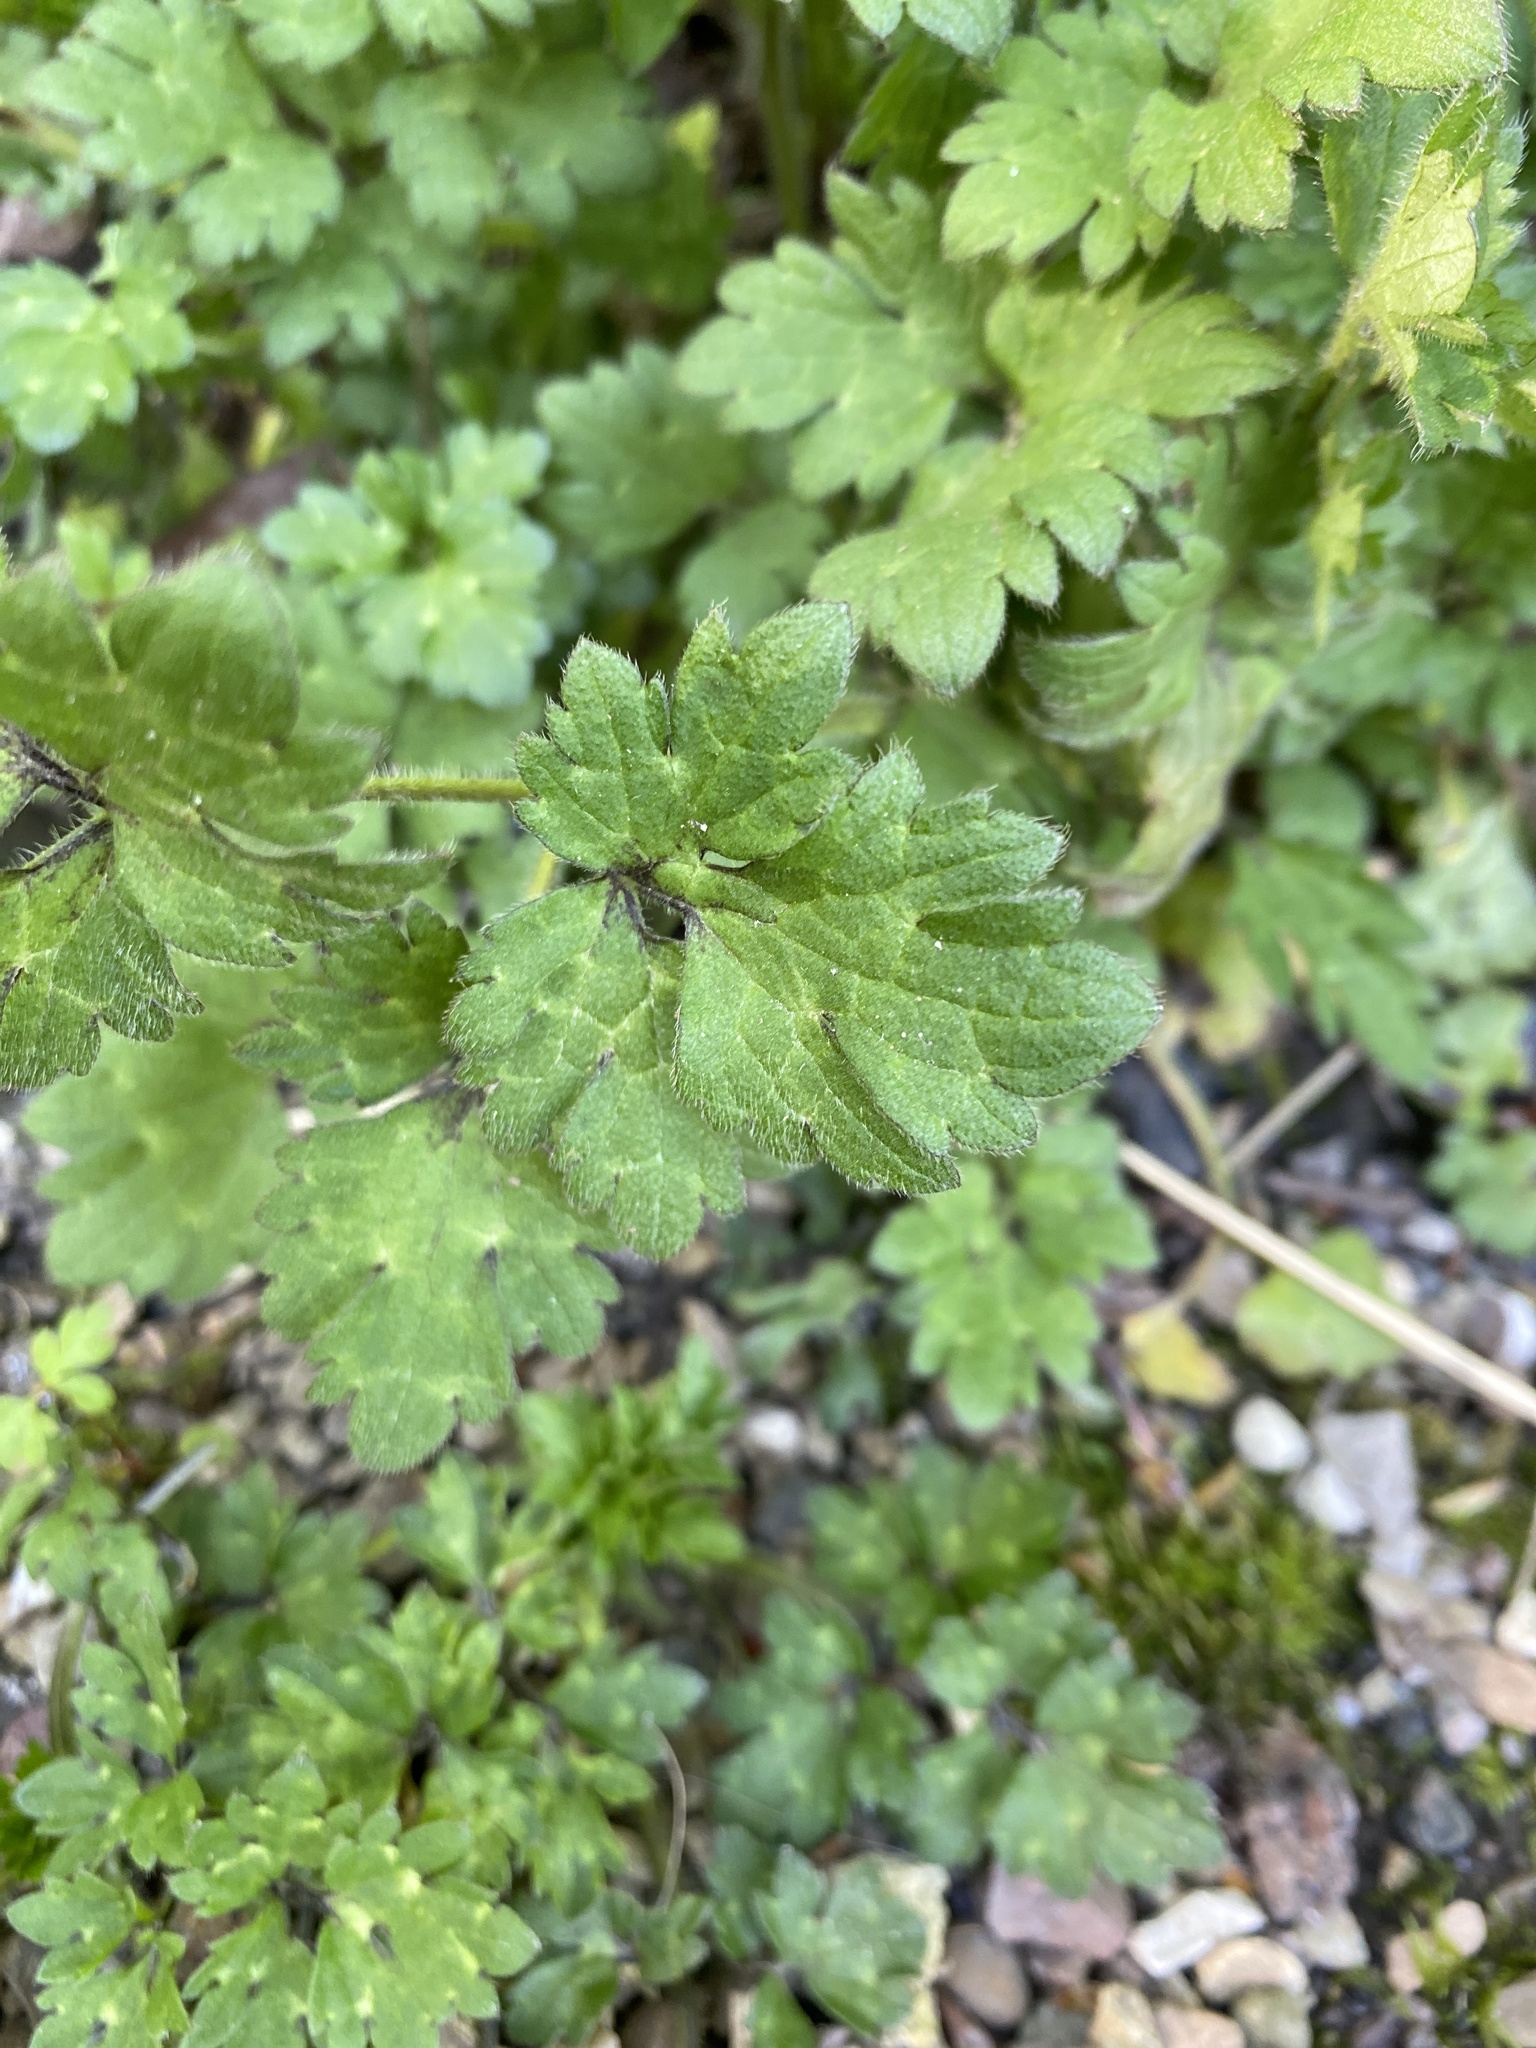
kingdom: Plantae
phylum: Tracheophyta
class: Magnoliopsida
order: Ranunculales
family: Ranunculaceae
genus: Ranunculus
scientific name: Ranunculus repens
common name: Creeping buttercup
